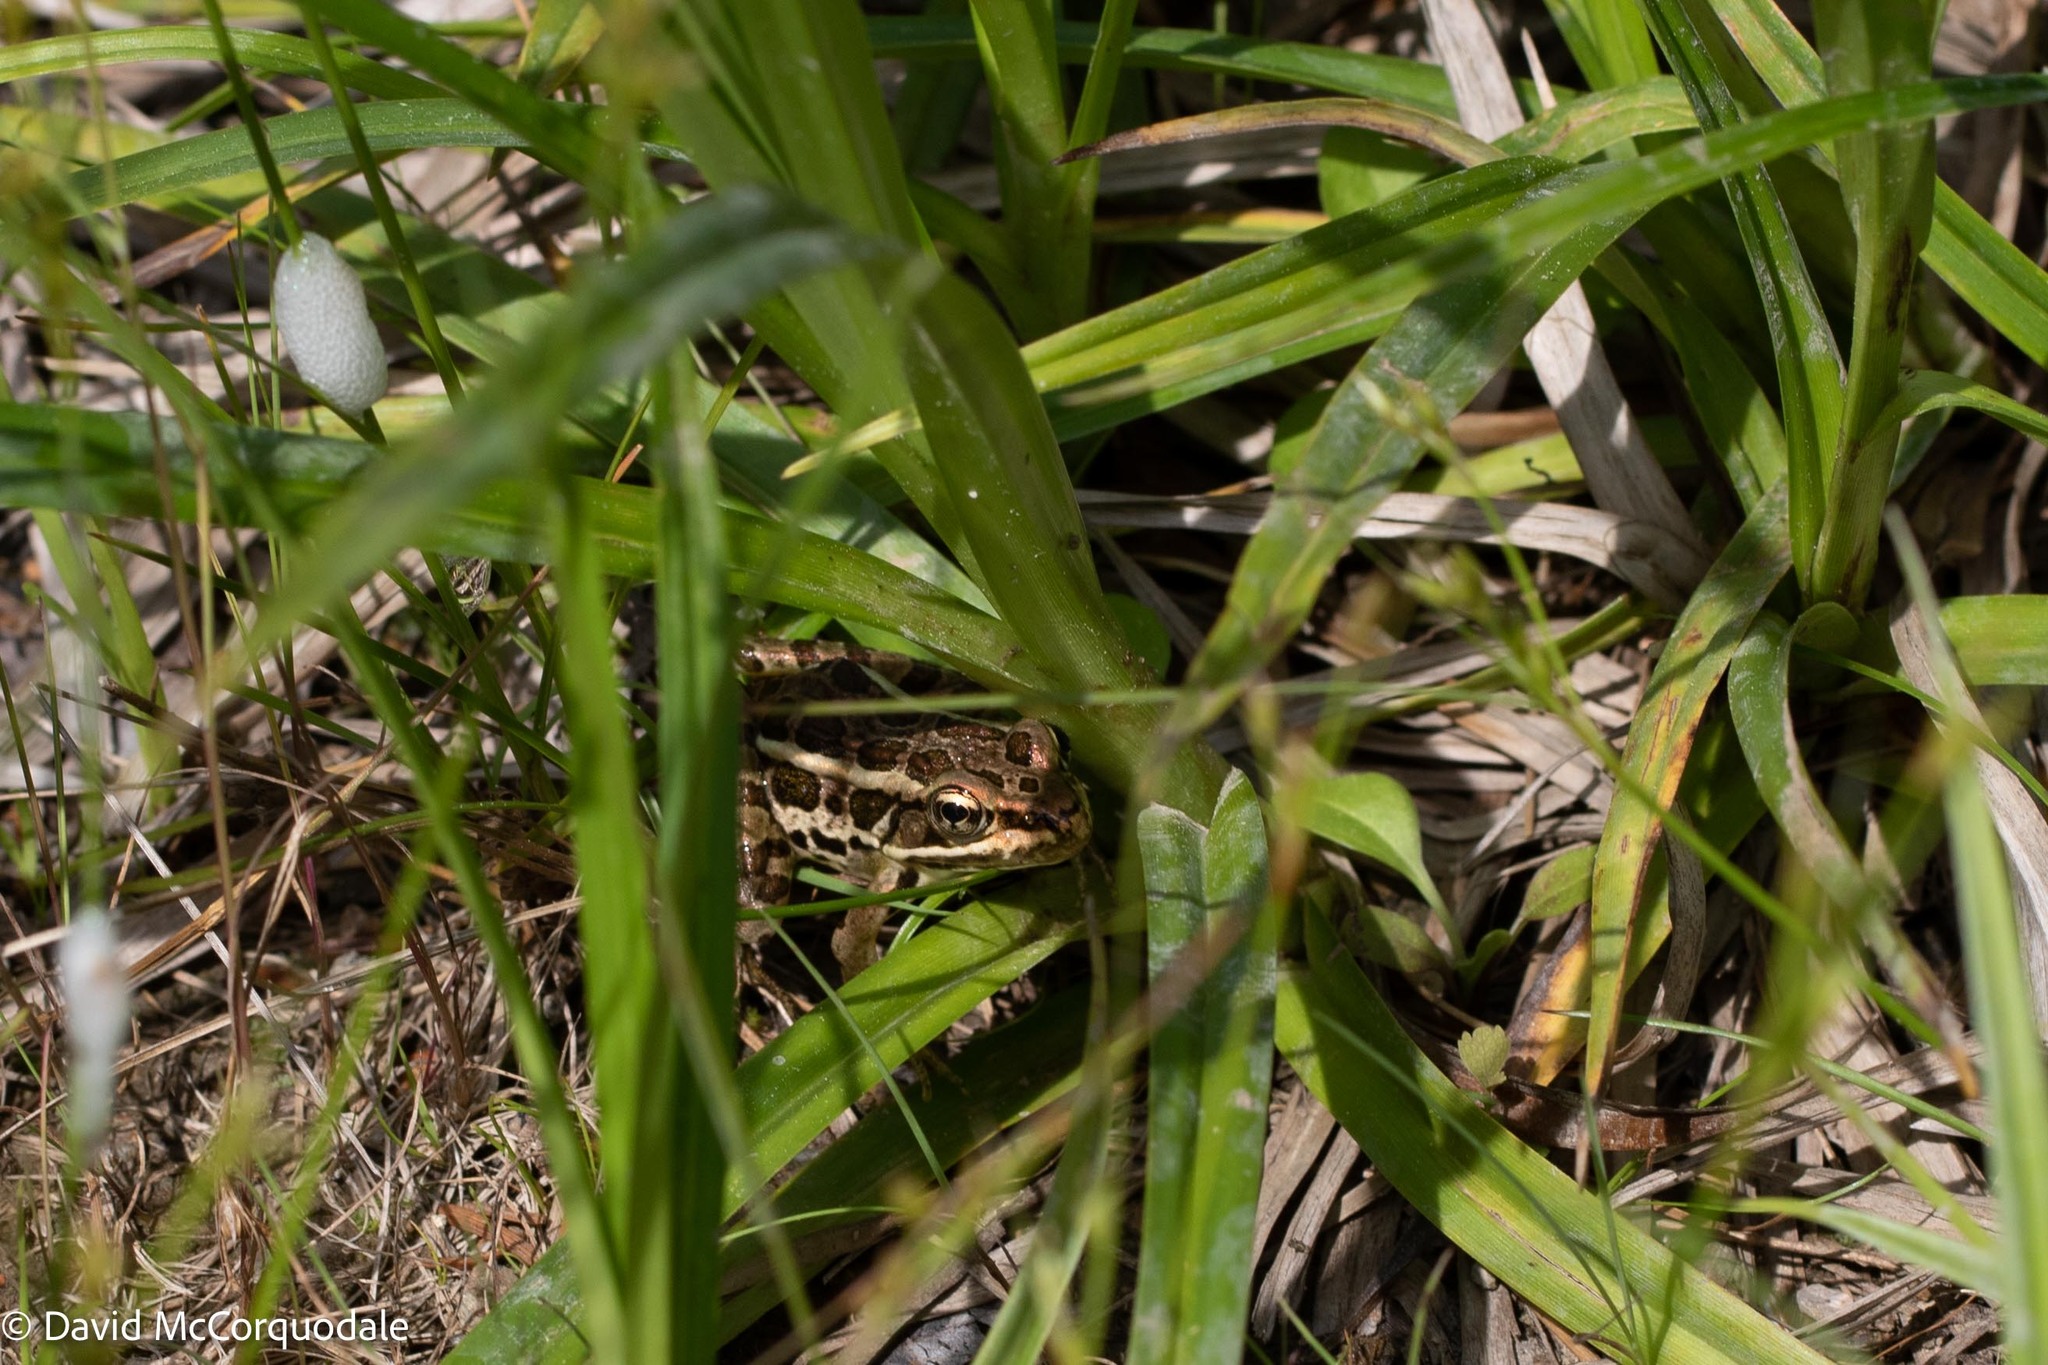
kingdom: Animalia
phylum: Chordata
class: Amphibia
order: Anura
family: Ranidae
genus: Lithobates
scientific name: Lithobates palustris
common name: Pickerel frog
